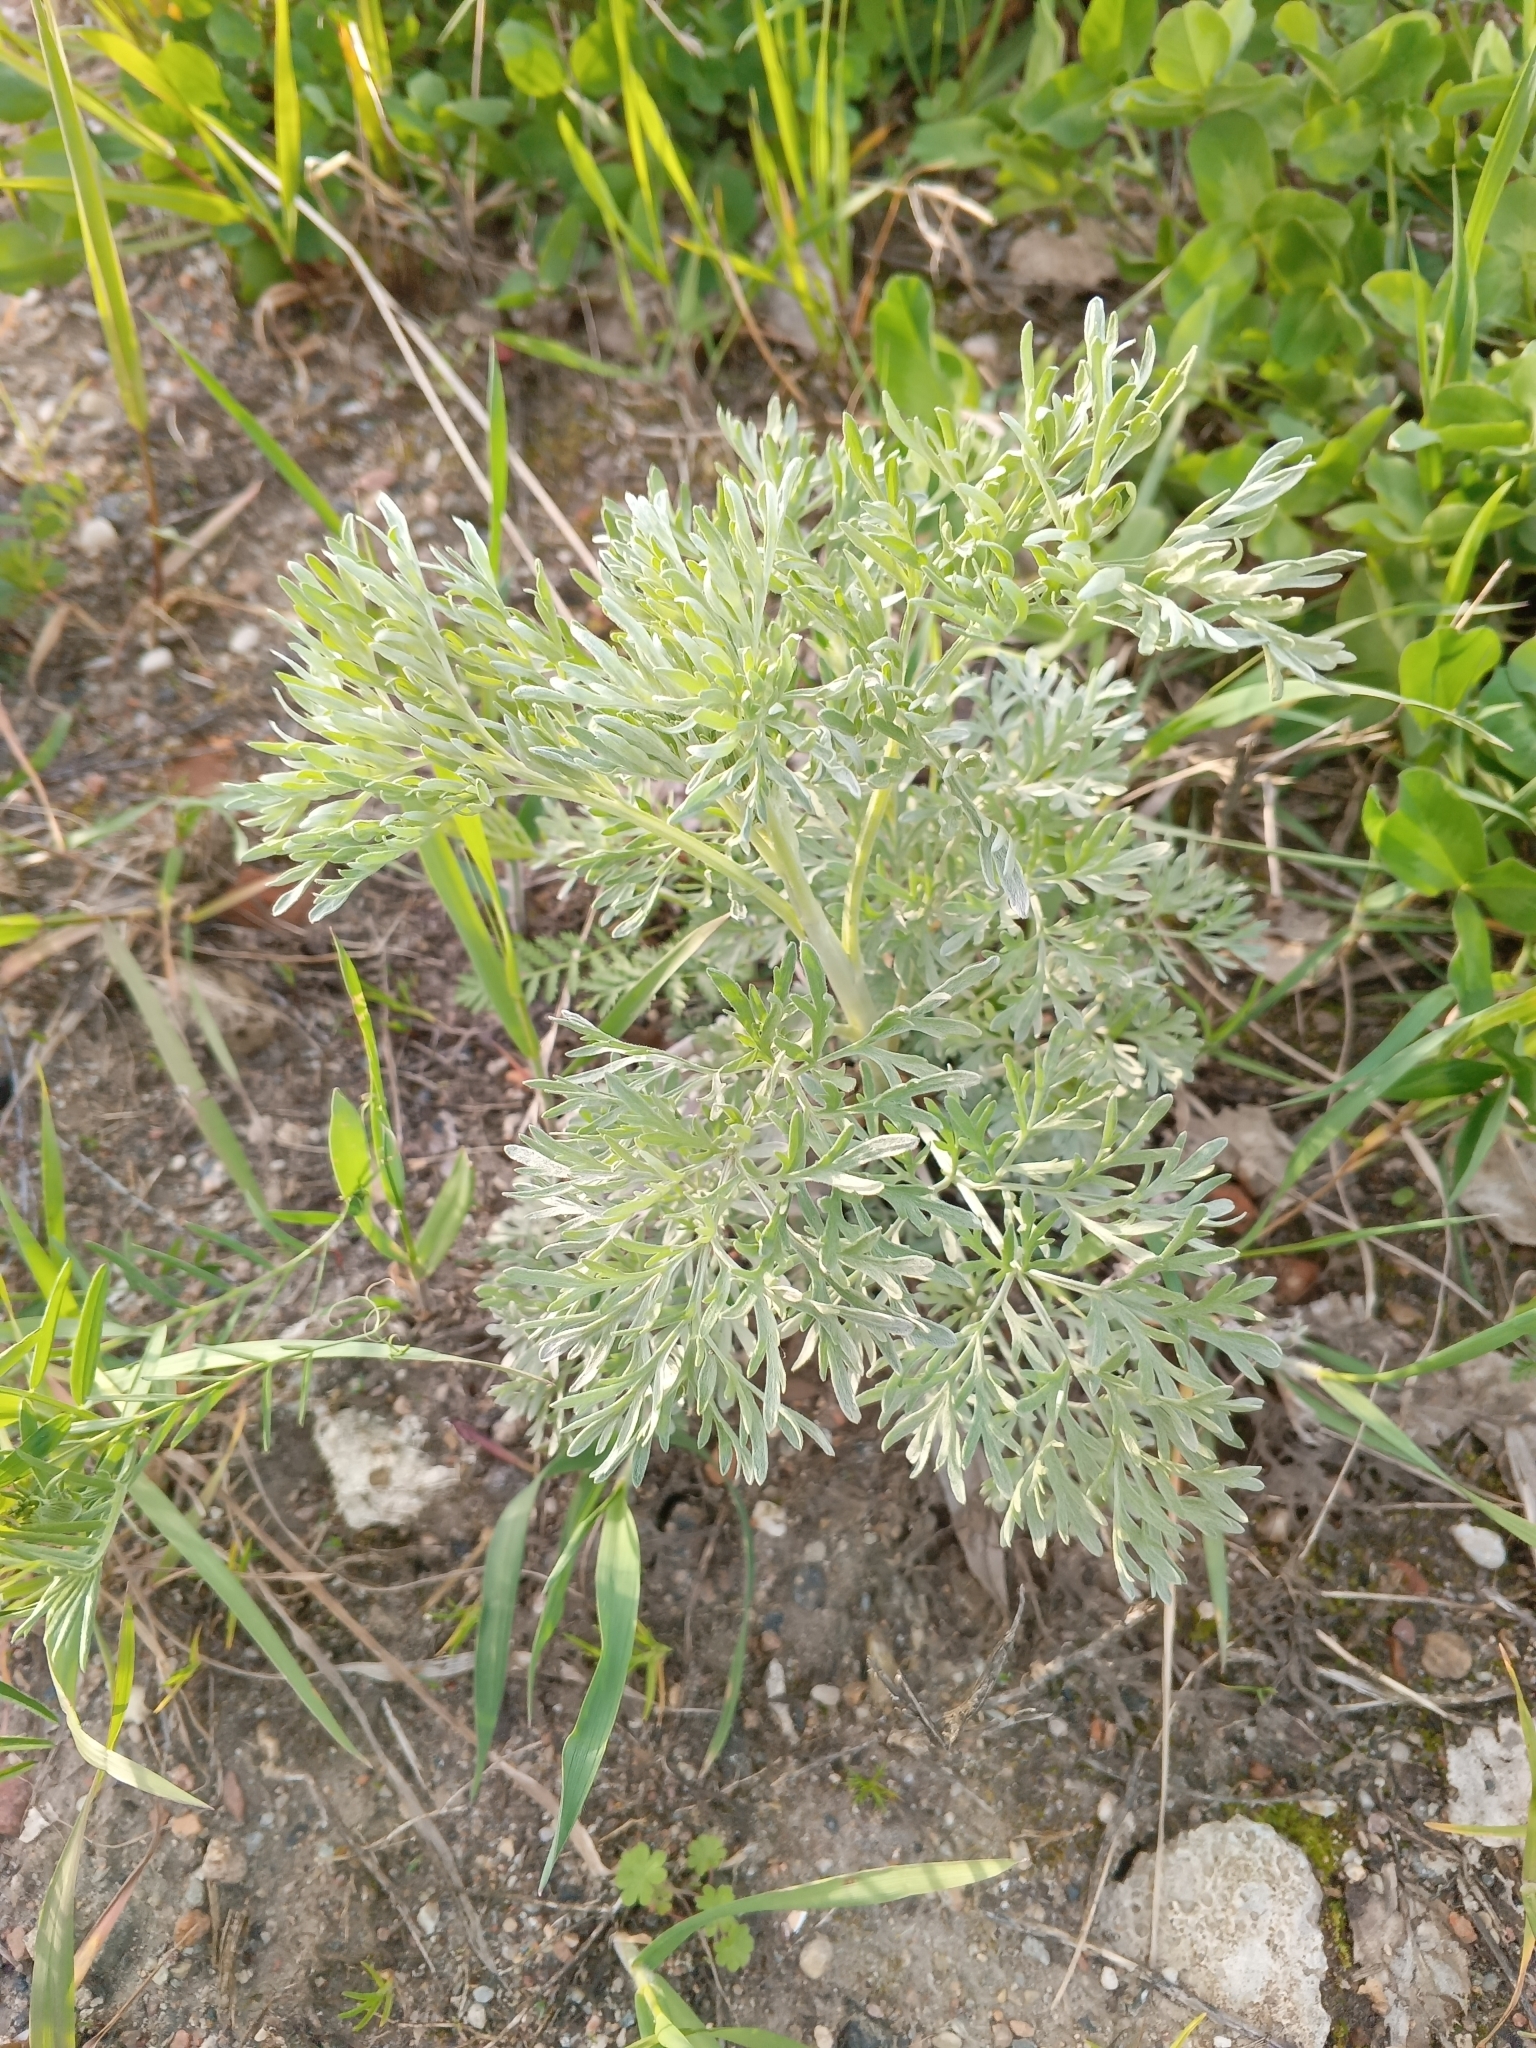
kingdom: Plantae
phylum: Tracheophyta
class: Magnoliopsida
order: Asterales
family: Asteraceae
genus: Artemisia
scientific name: Artemisia absinthium
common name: Wormwood
